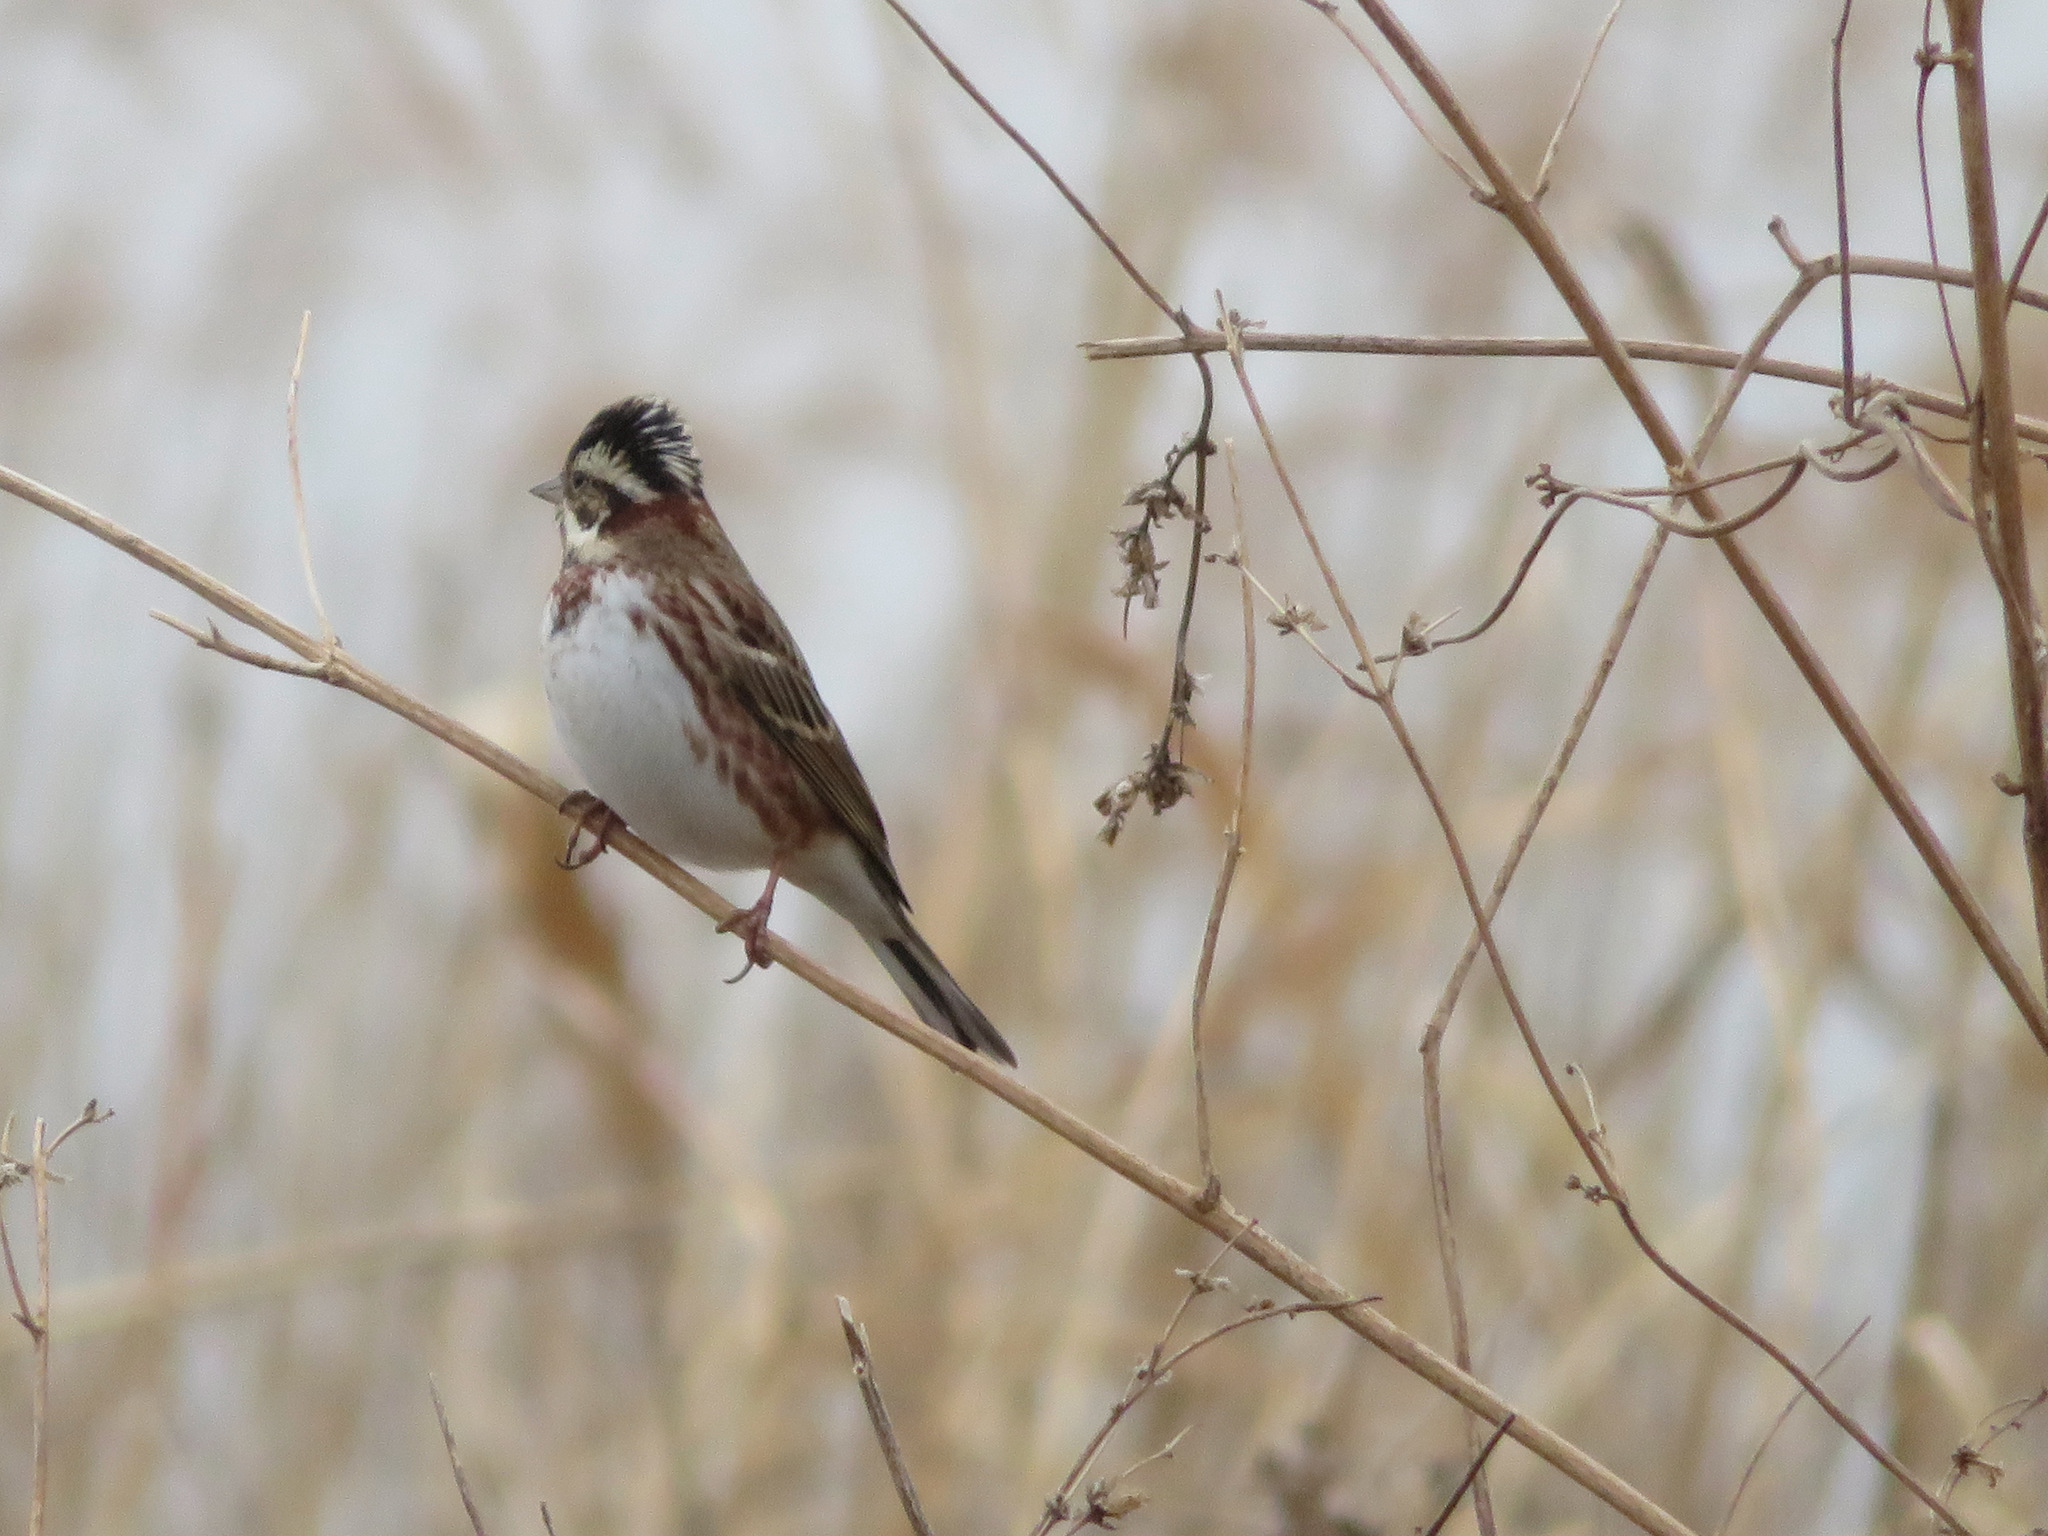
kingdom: Animalia
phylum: Chordata
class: Aves
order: Passeriformes
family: Emberizidae
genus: Emberiza
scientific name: Emberiza rustica
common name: Rustic bunting
